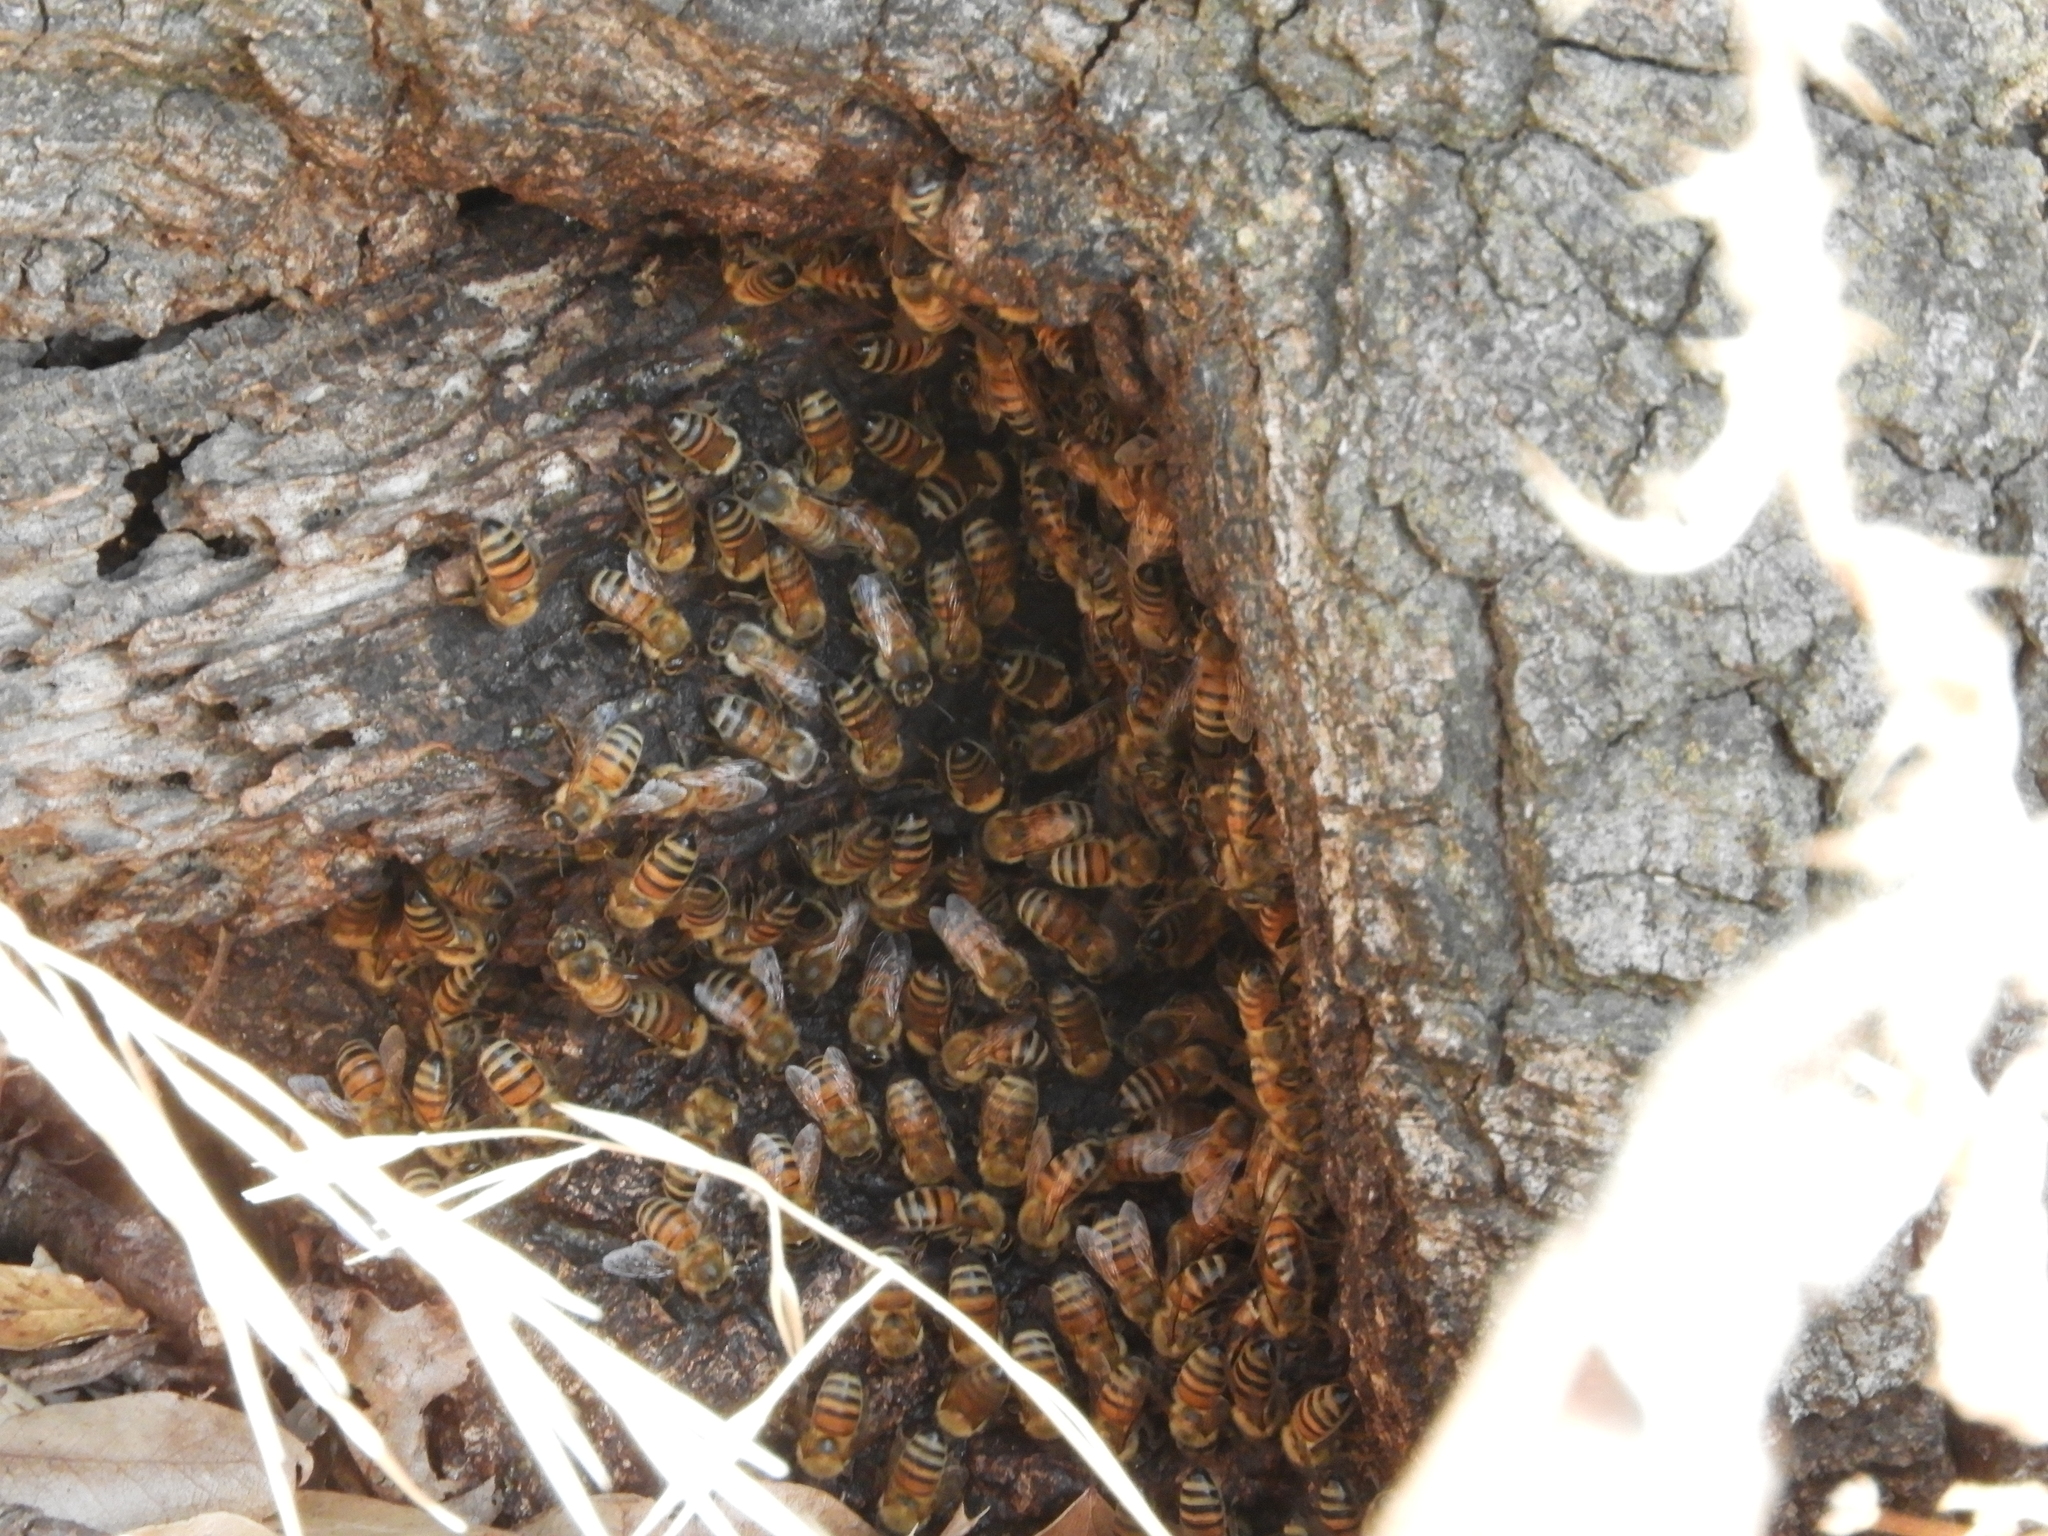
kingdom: Animalia
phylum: Arthropoda
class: Insecta
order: Hymenoptera
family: Apidae
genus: Apis
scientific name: Apis mellifera
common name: Honey bee
